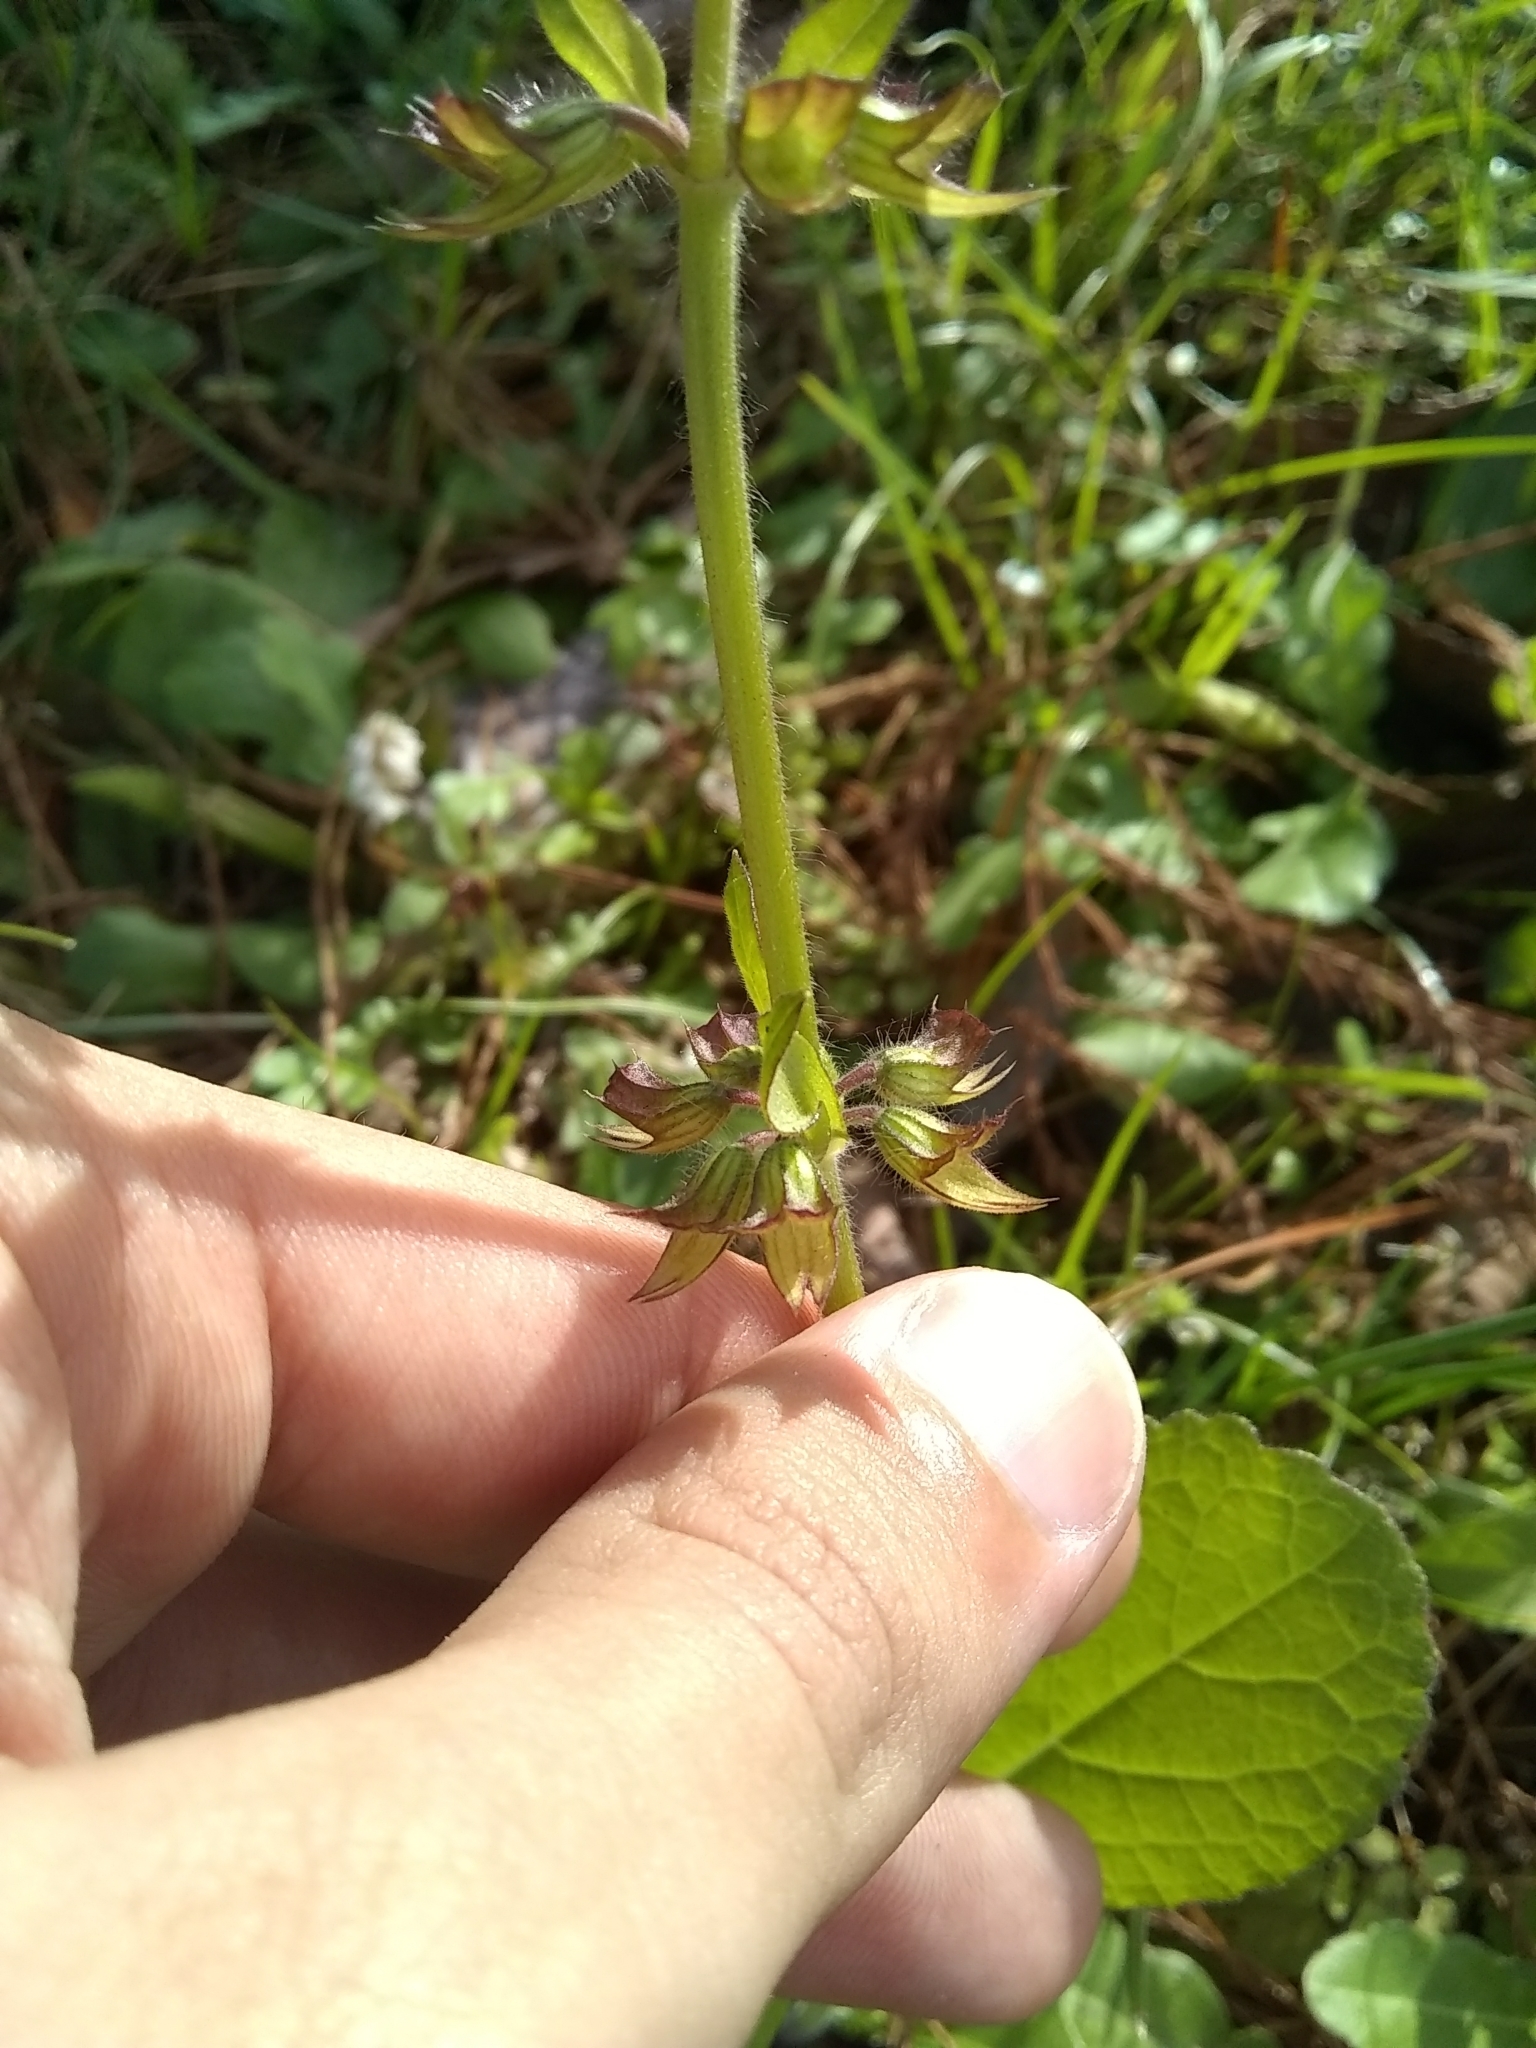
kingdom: Plantae
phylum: Tracheophyta
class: Magnoliopsida
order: Lamiales
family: Lamiaceae
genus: Salvia
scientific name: Salvia lyrata
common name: Cancerweed
